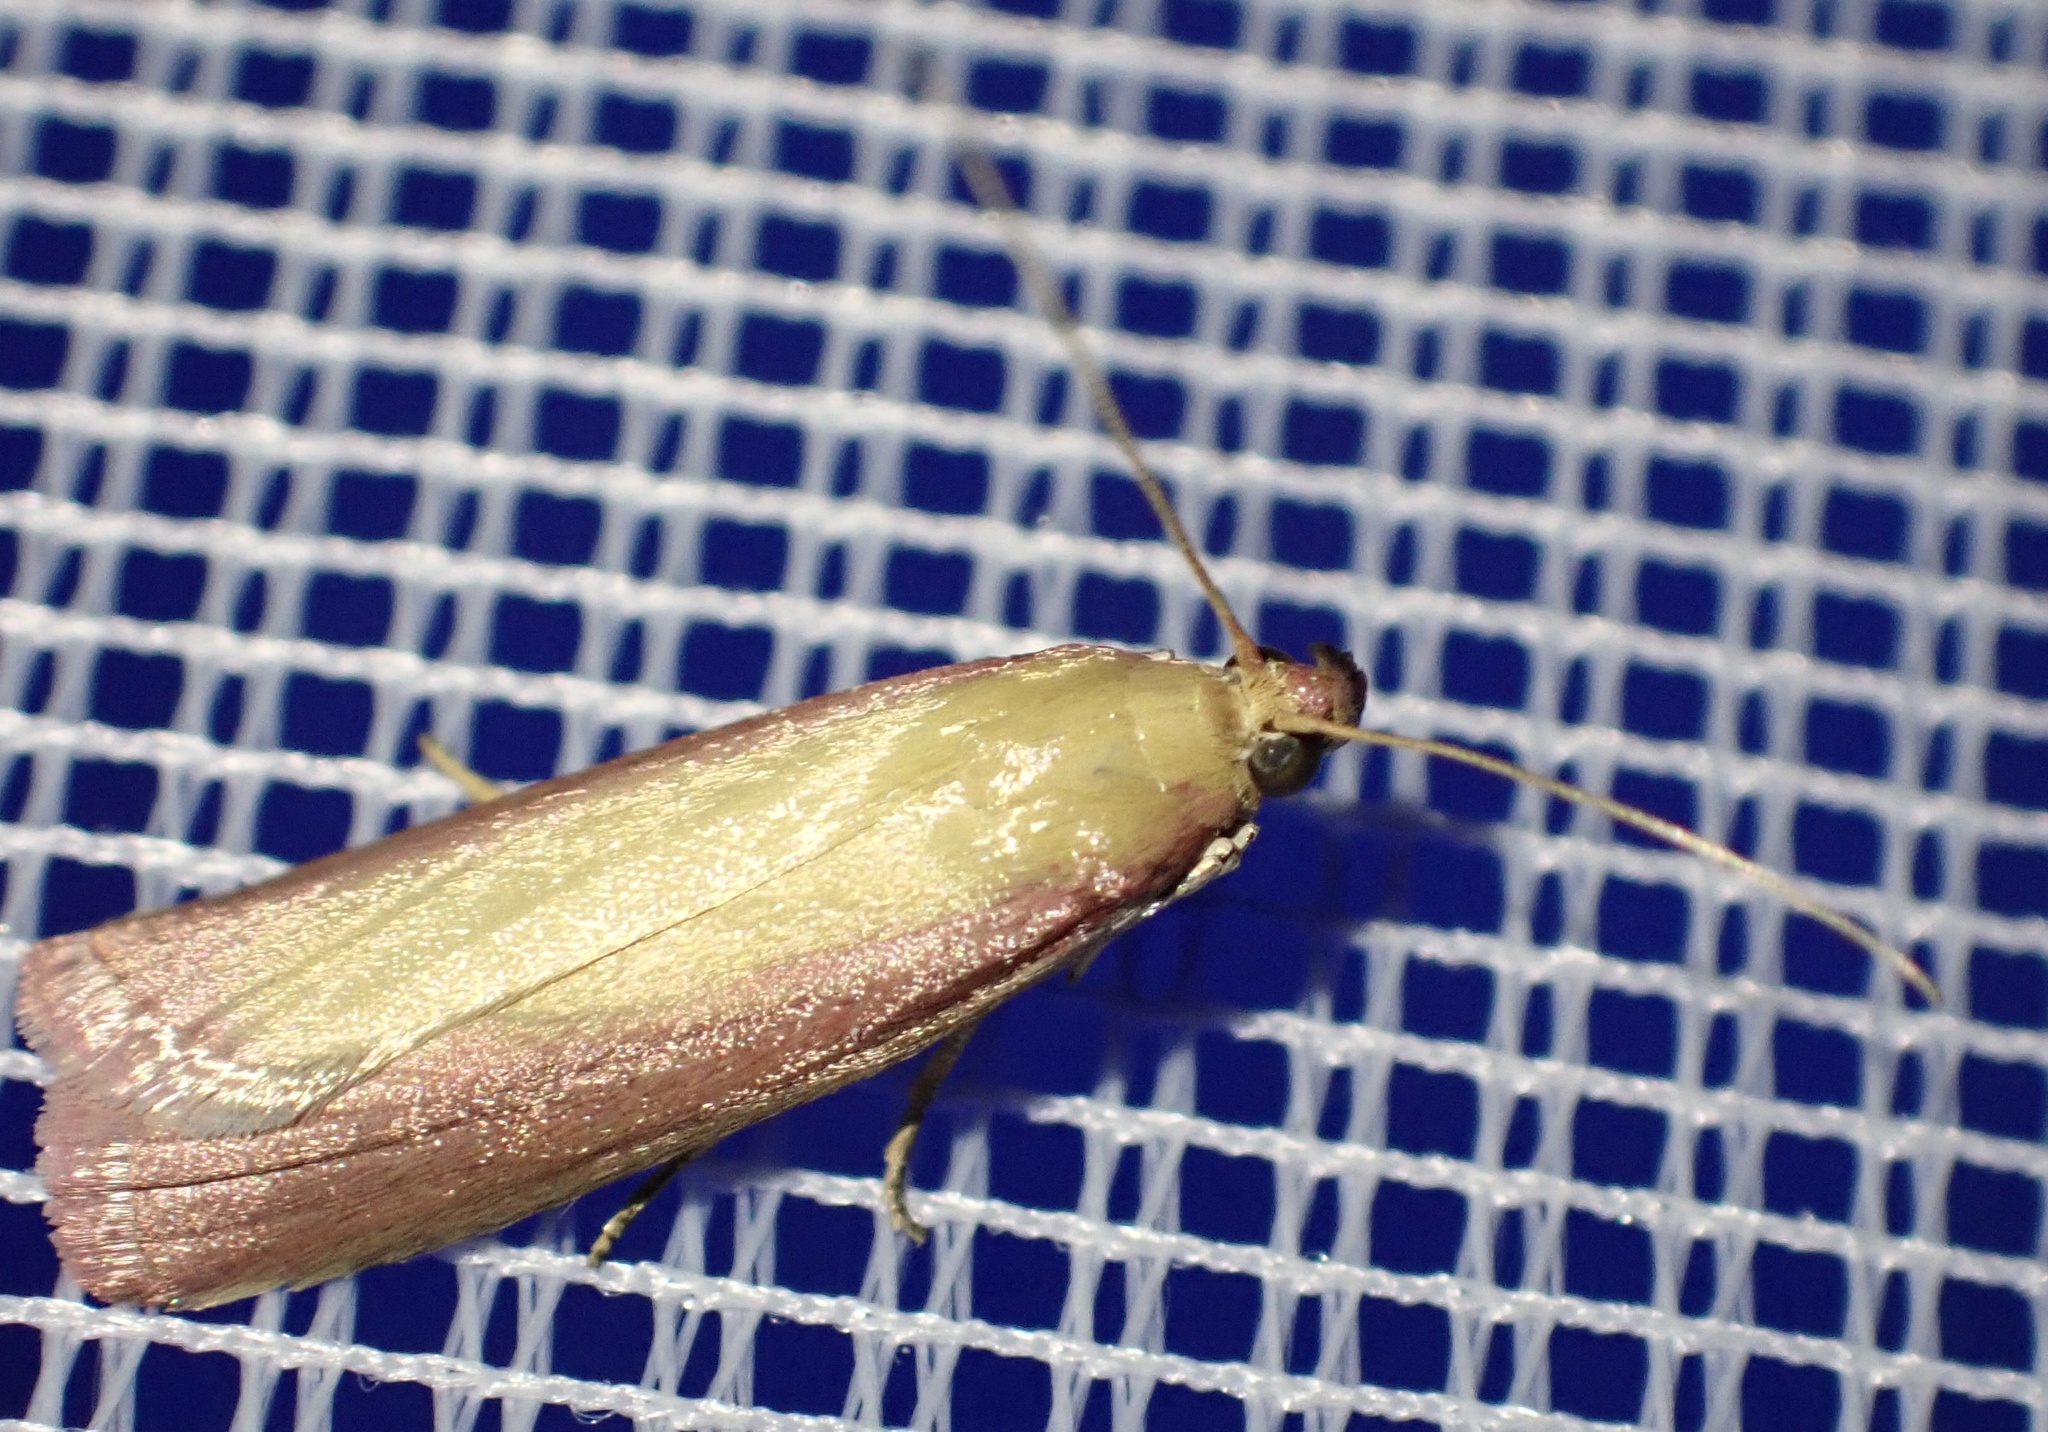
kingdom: Animalia
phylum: Arthropoda
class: Insecta
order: Lepidoptera
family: Pyralidae
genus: Oncocera
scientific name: Oncocera semirubella
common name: Rosy-striped knot-horn
